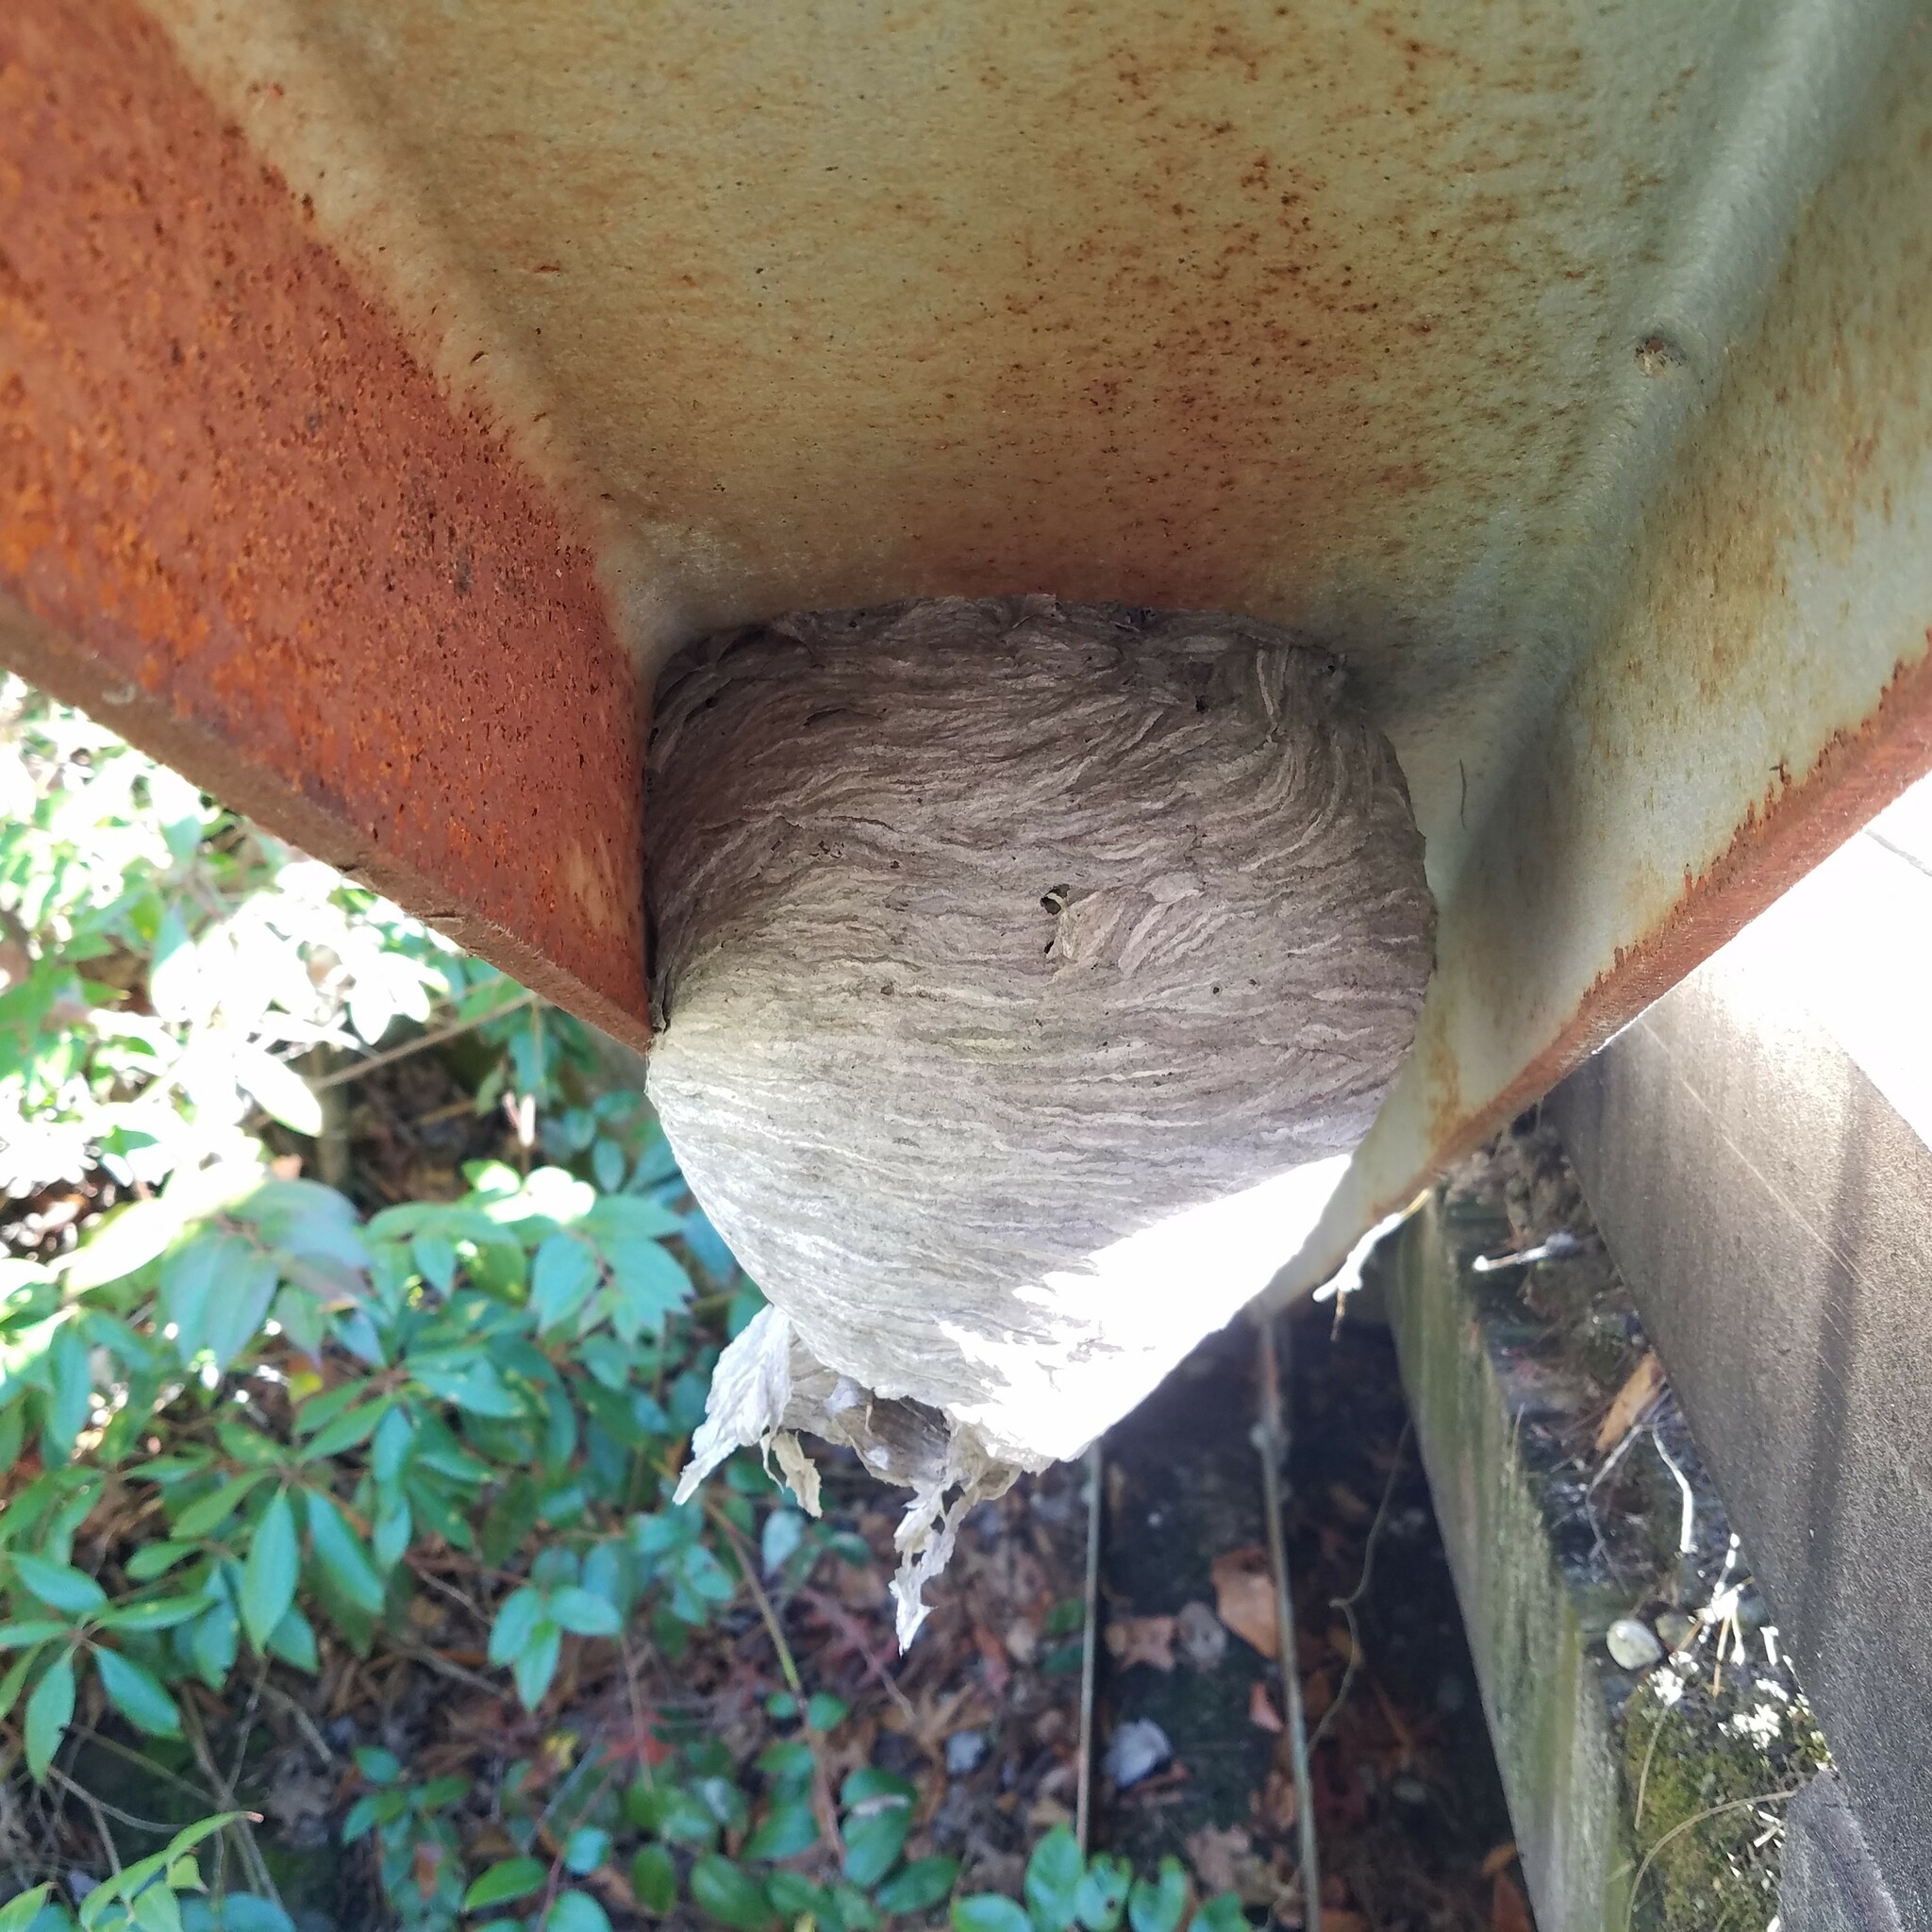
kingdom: Animalia
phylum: Arthropoda
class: Insecta
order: Hymenoptera
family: Vespidae
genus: Dolichovespula
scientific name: Dolichovespula
